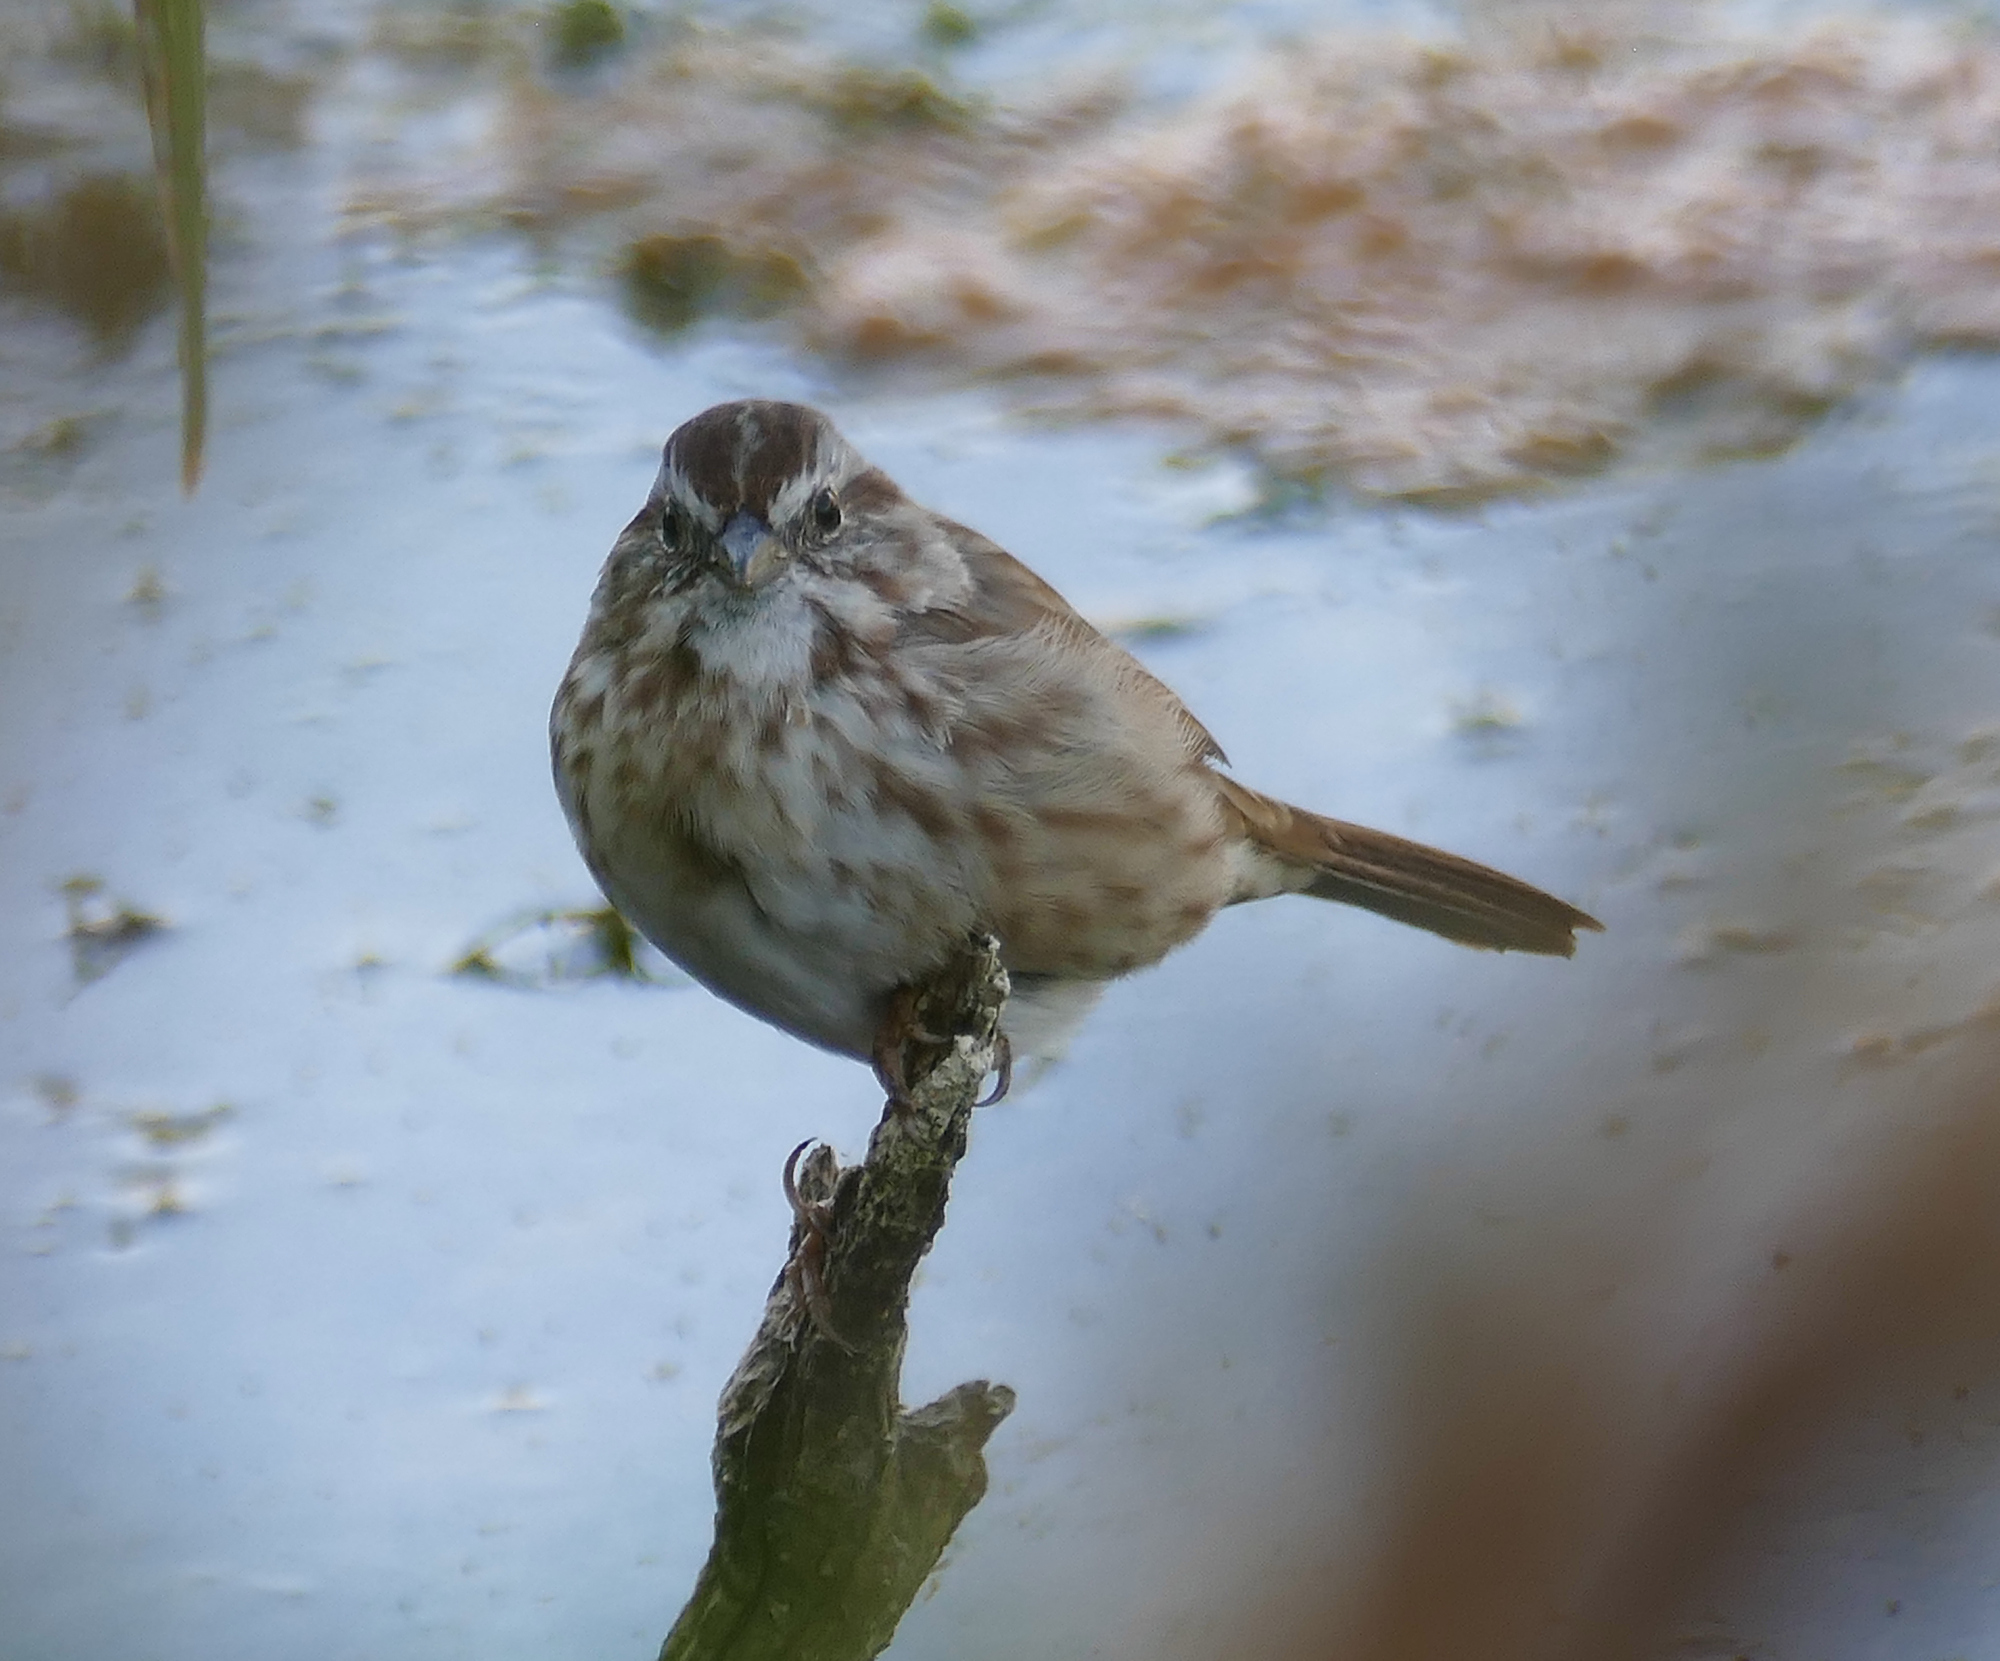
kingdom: Animalia
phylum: Chordata
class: Aves
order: Passeriformes
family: Passerellidae
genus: Melospiza
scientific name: Melospiza melodia
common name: Song sparrow
